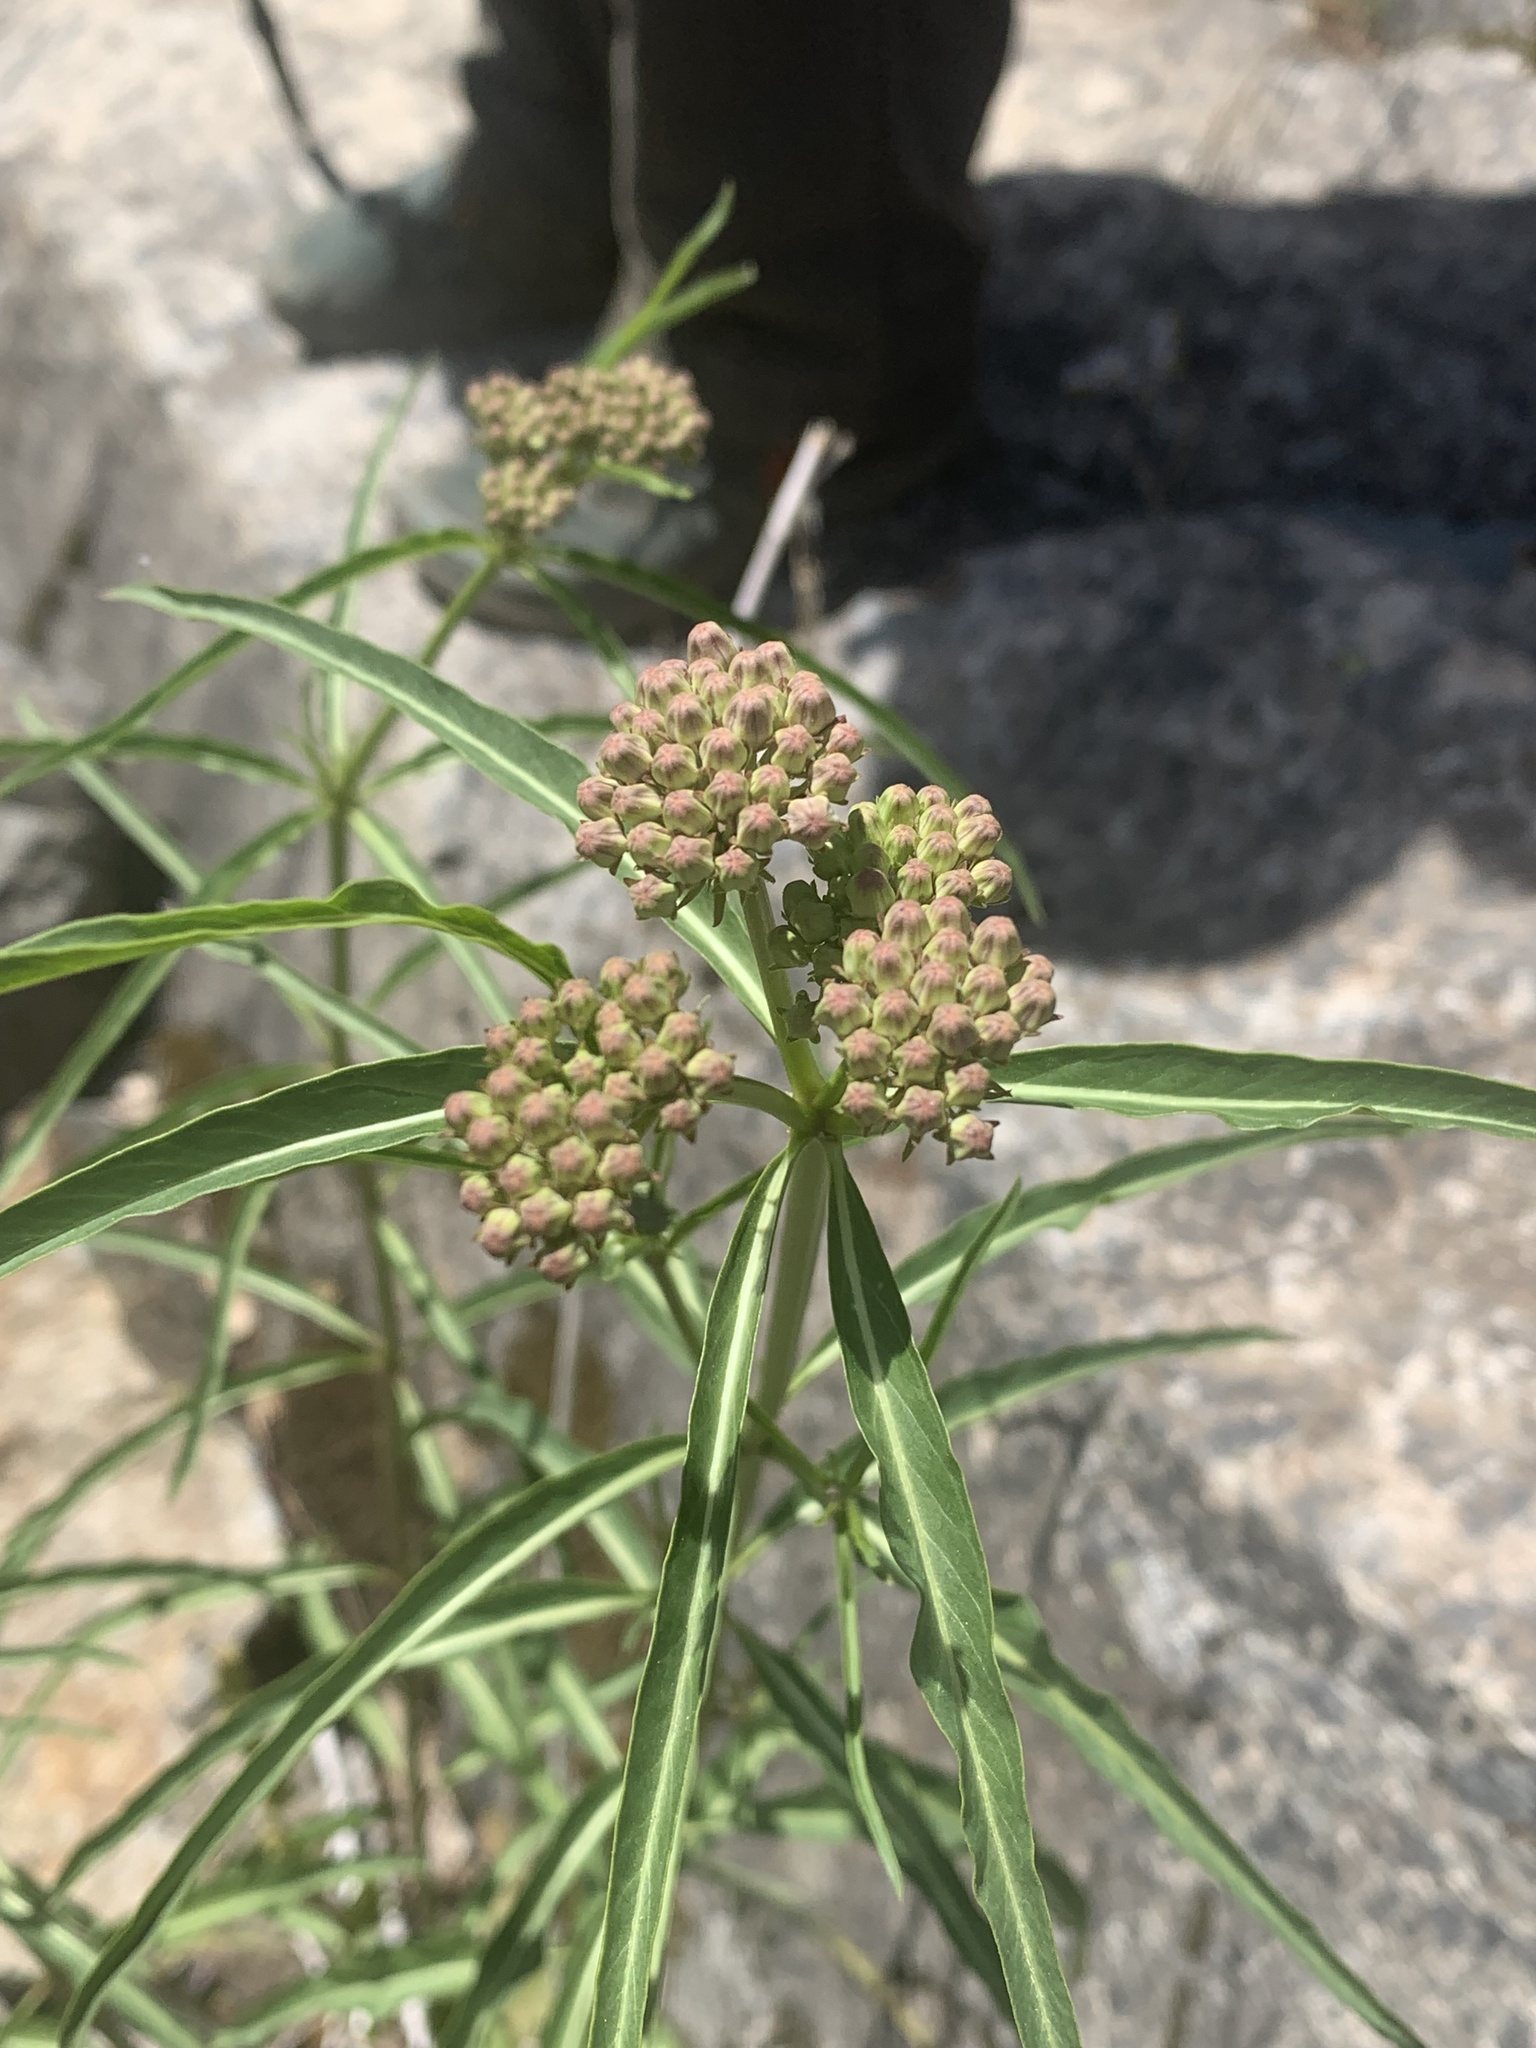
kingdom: Plantae
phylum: Tracheophyta
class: Magnoliopsida
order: Gentianales
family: Apocynaceae
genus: Asclepias
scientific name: Asclepias fascicularis
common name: Mexican milkweed
